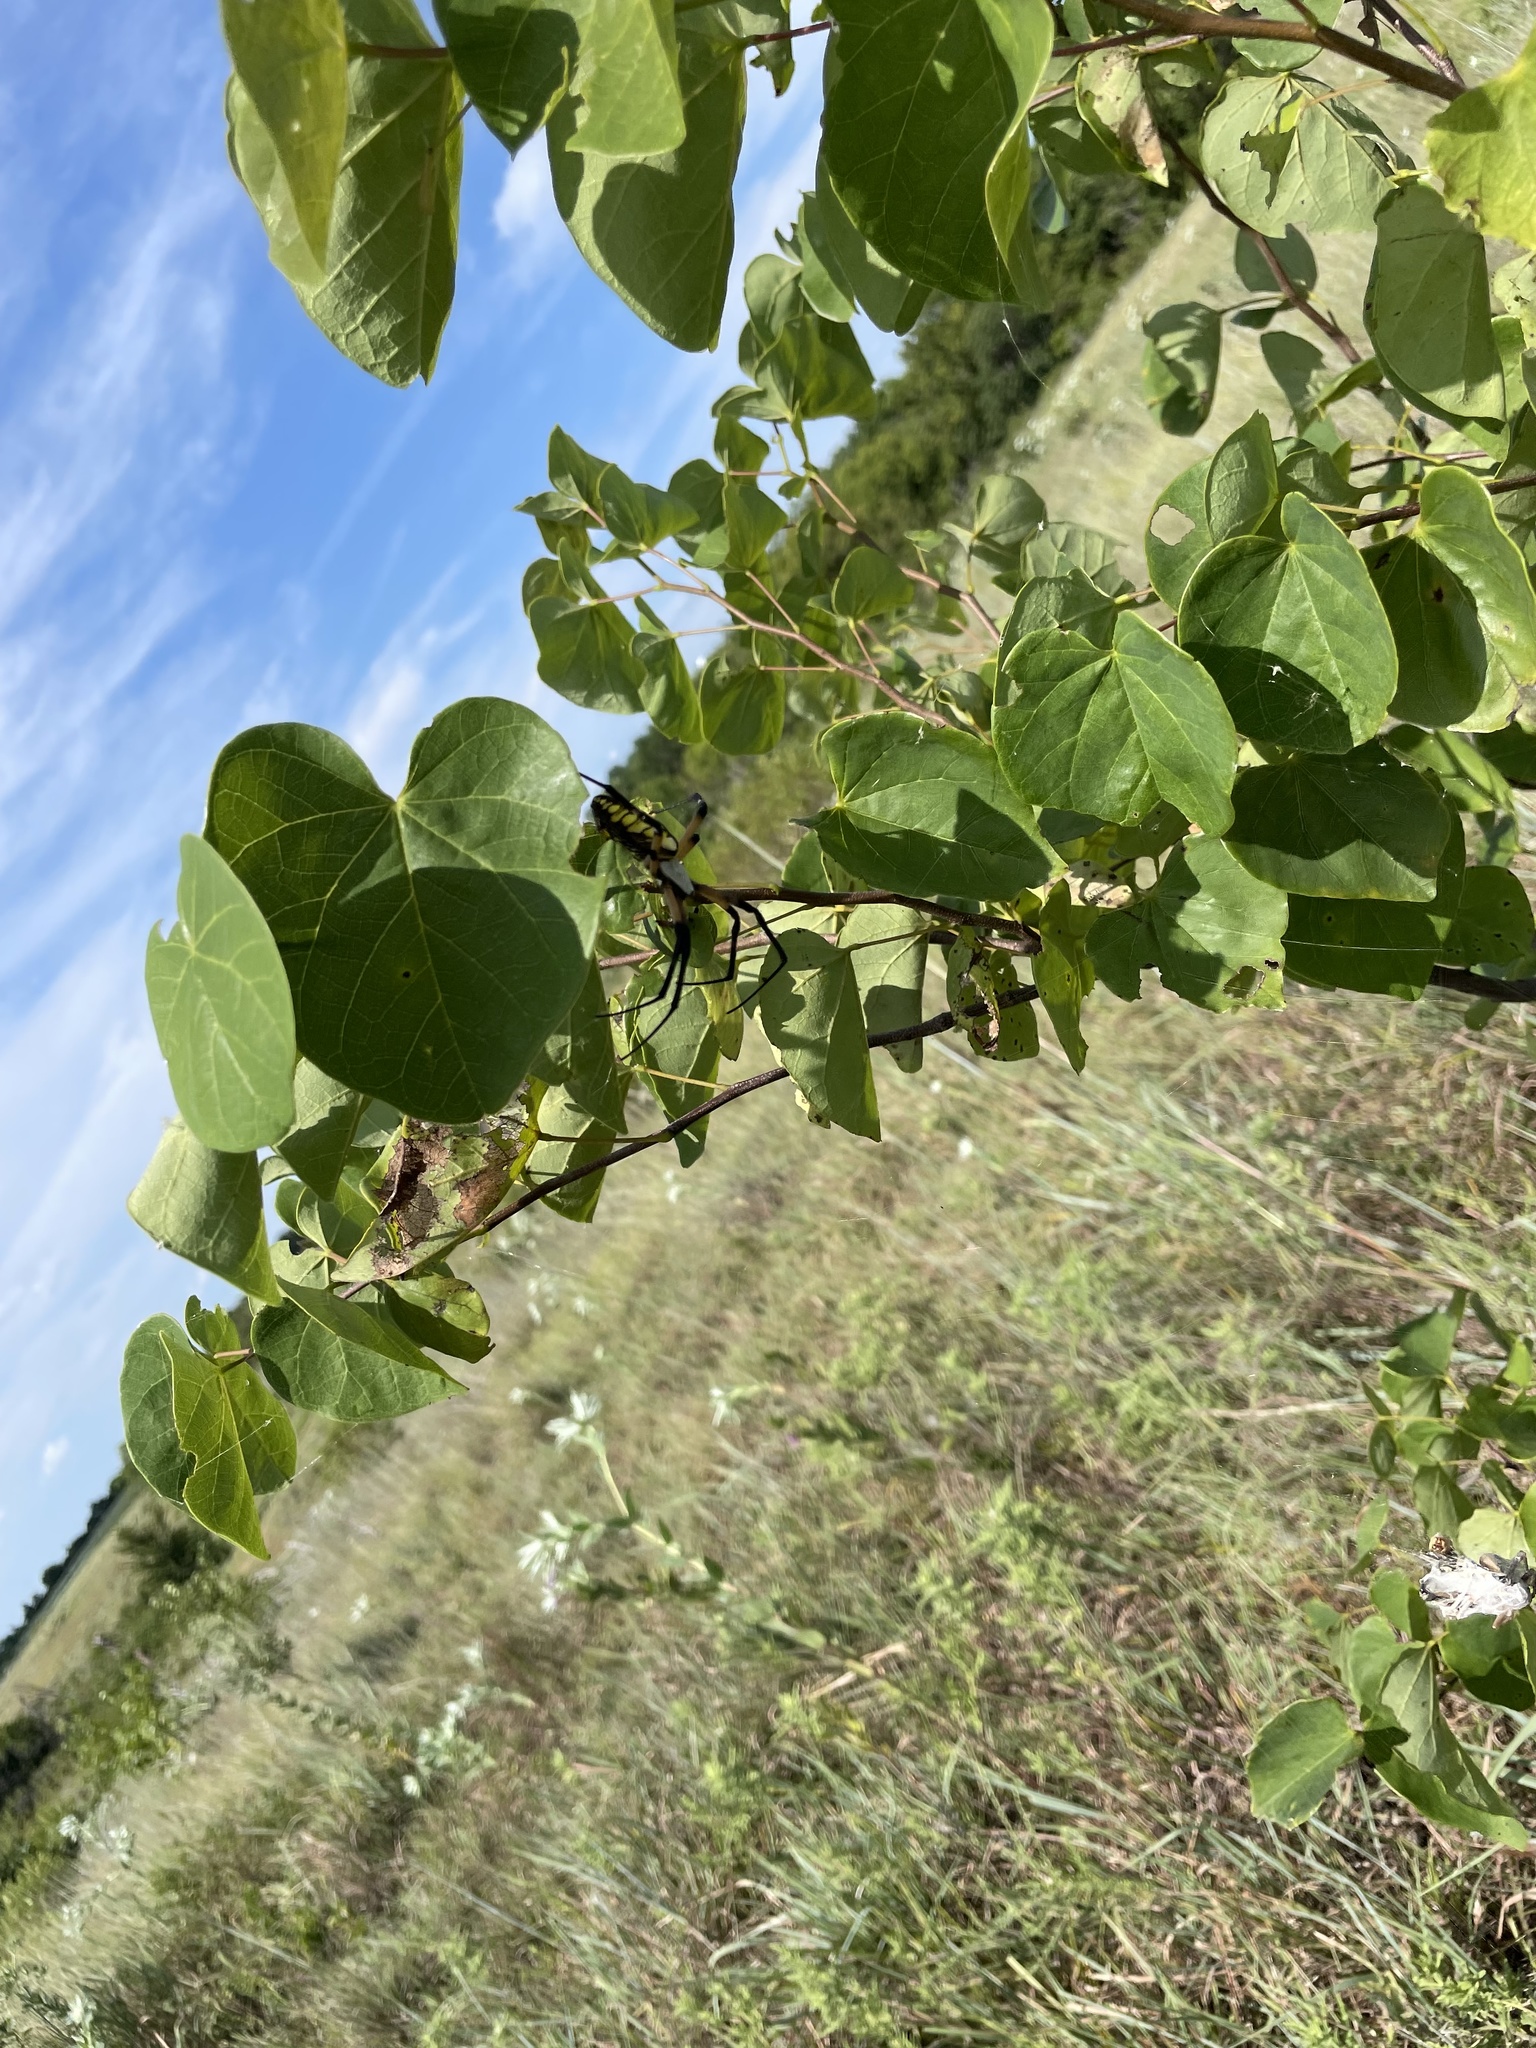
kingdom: Animalia
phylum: Arthropoda
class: Arachnida
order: Araneae
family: Araneidae
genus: Argiope
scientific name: Argiope aurantia
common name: Orb weavers
